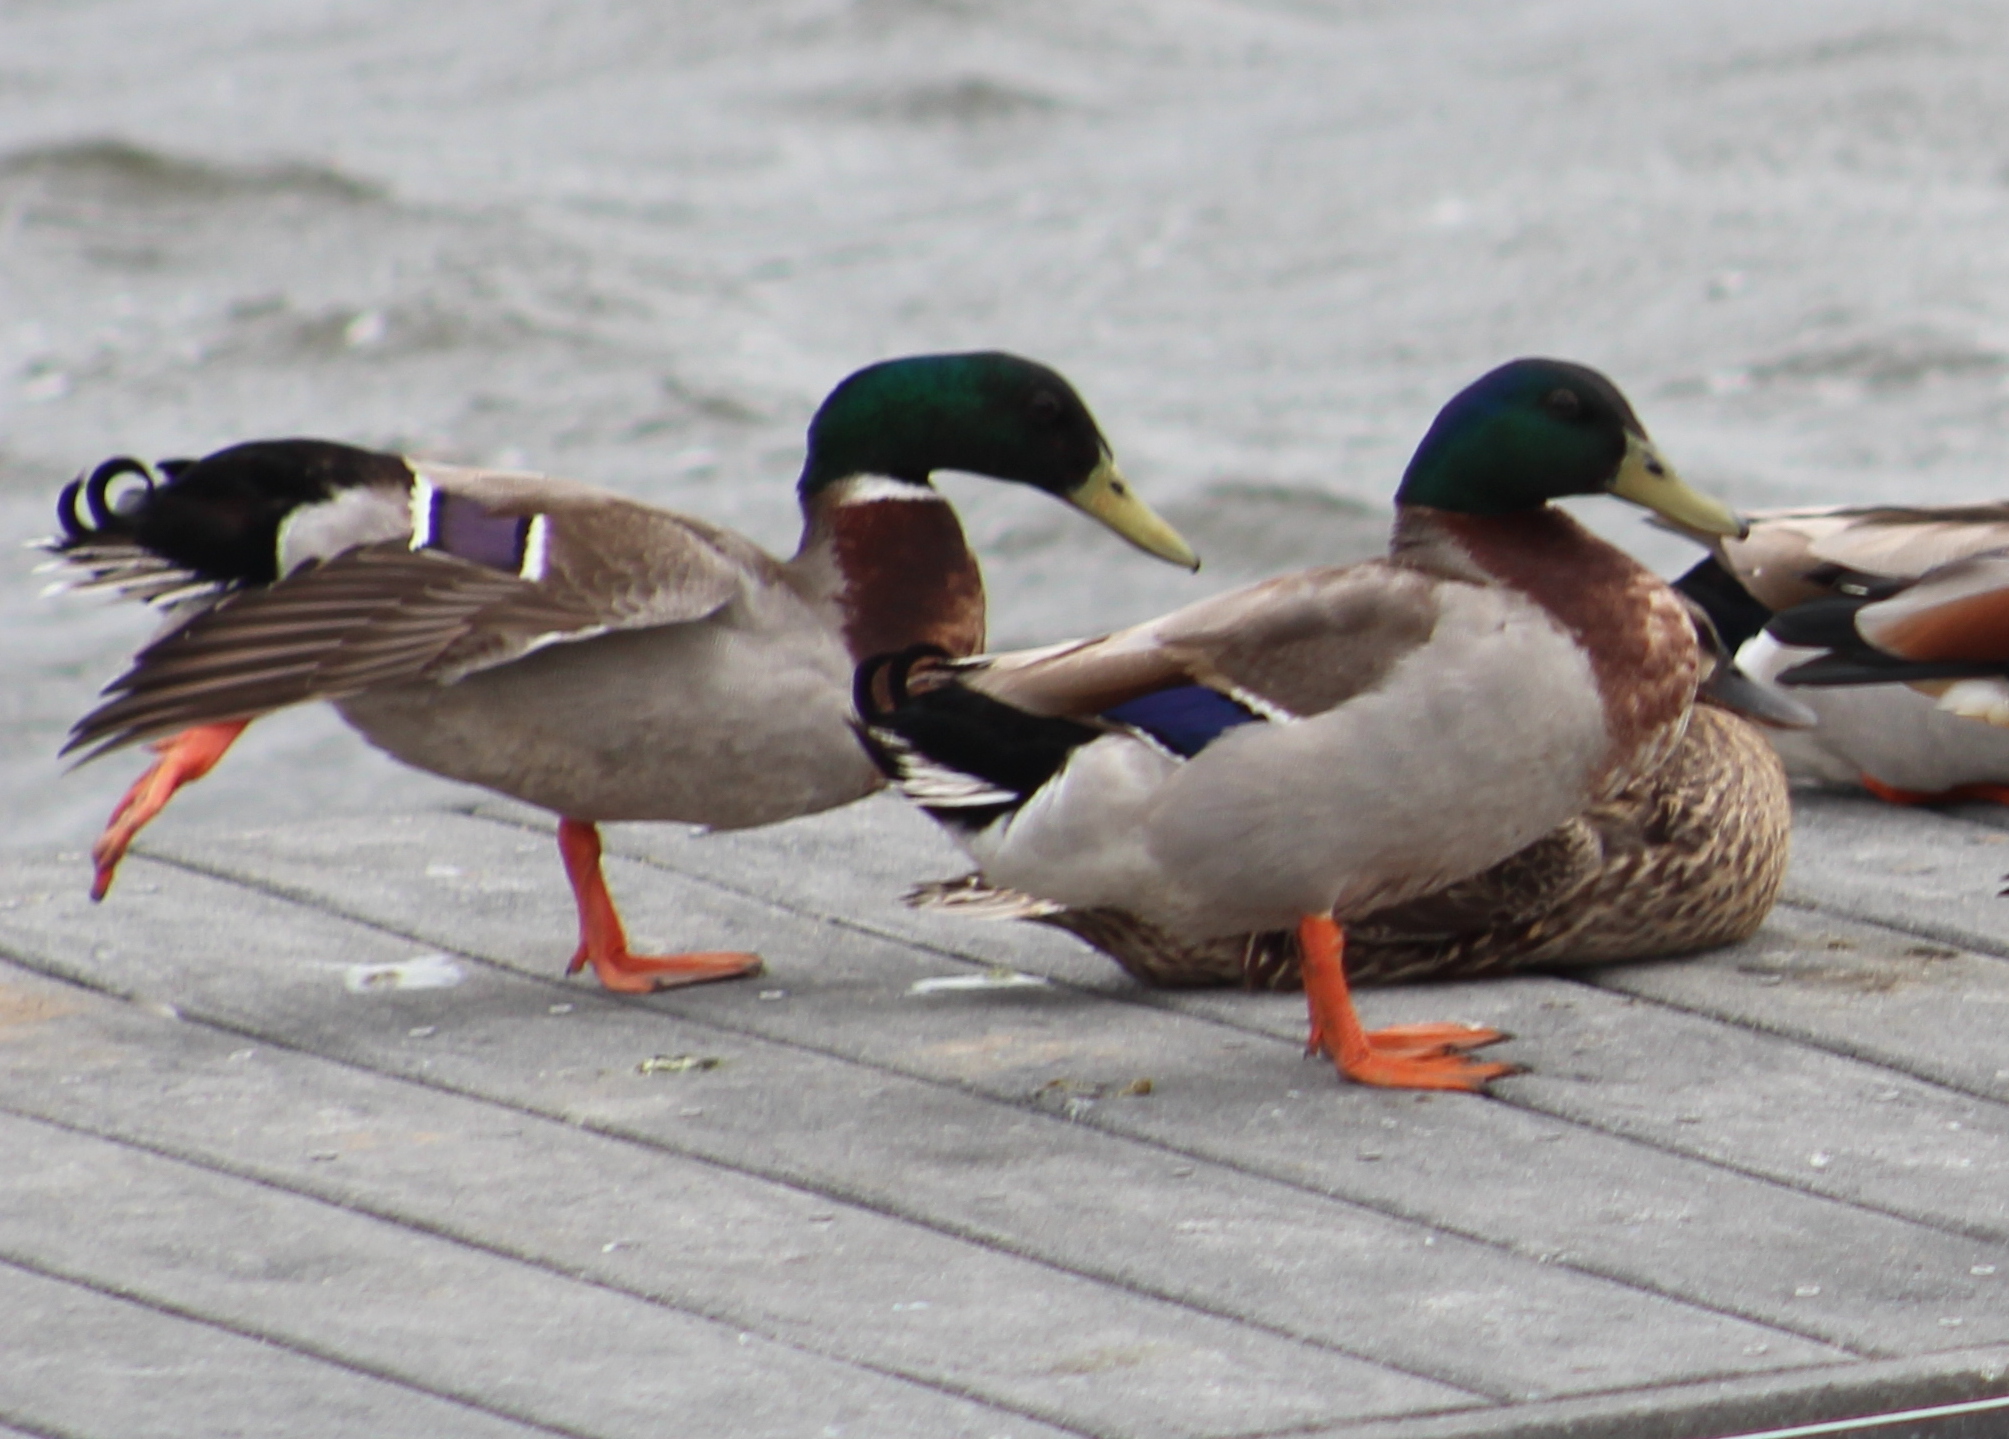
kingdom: Animalia
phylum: Chordata
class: Aves
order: Anseriformes
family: Anatidae
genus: Anas
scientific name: Anas platyrhynchos
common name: Mallard
